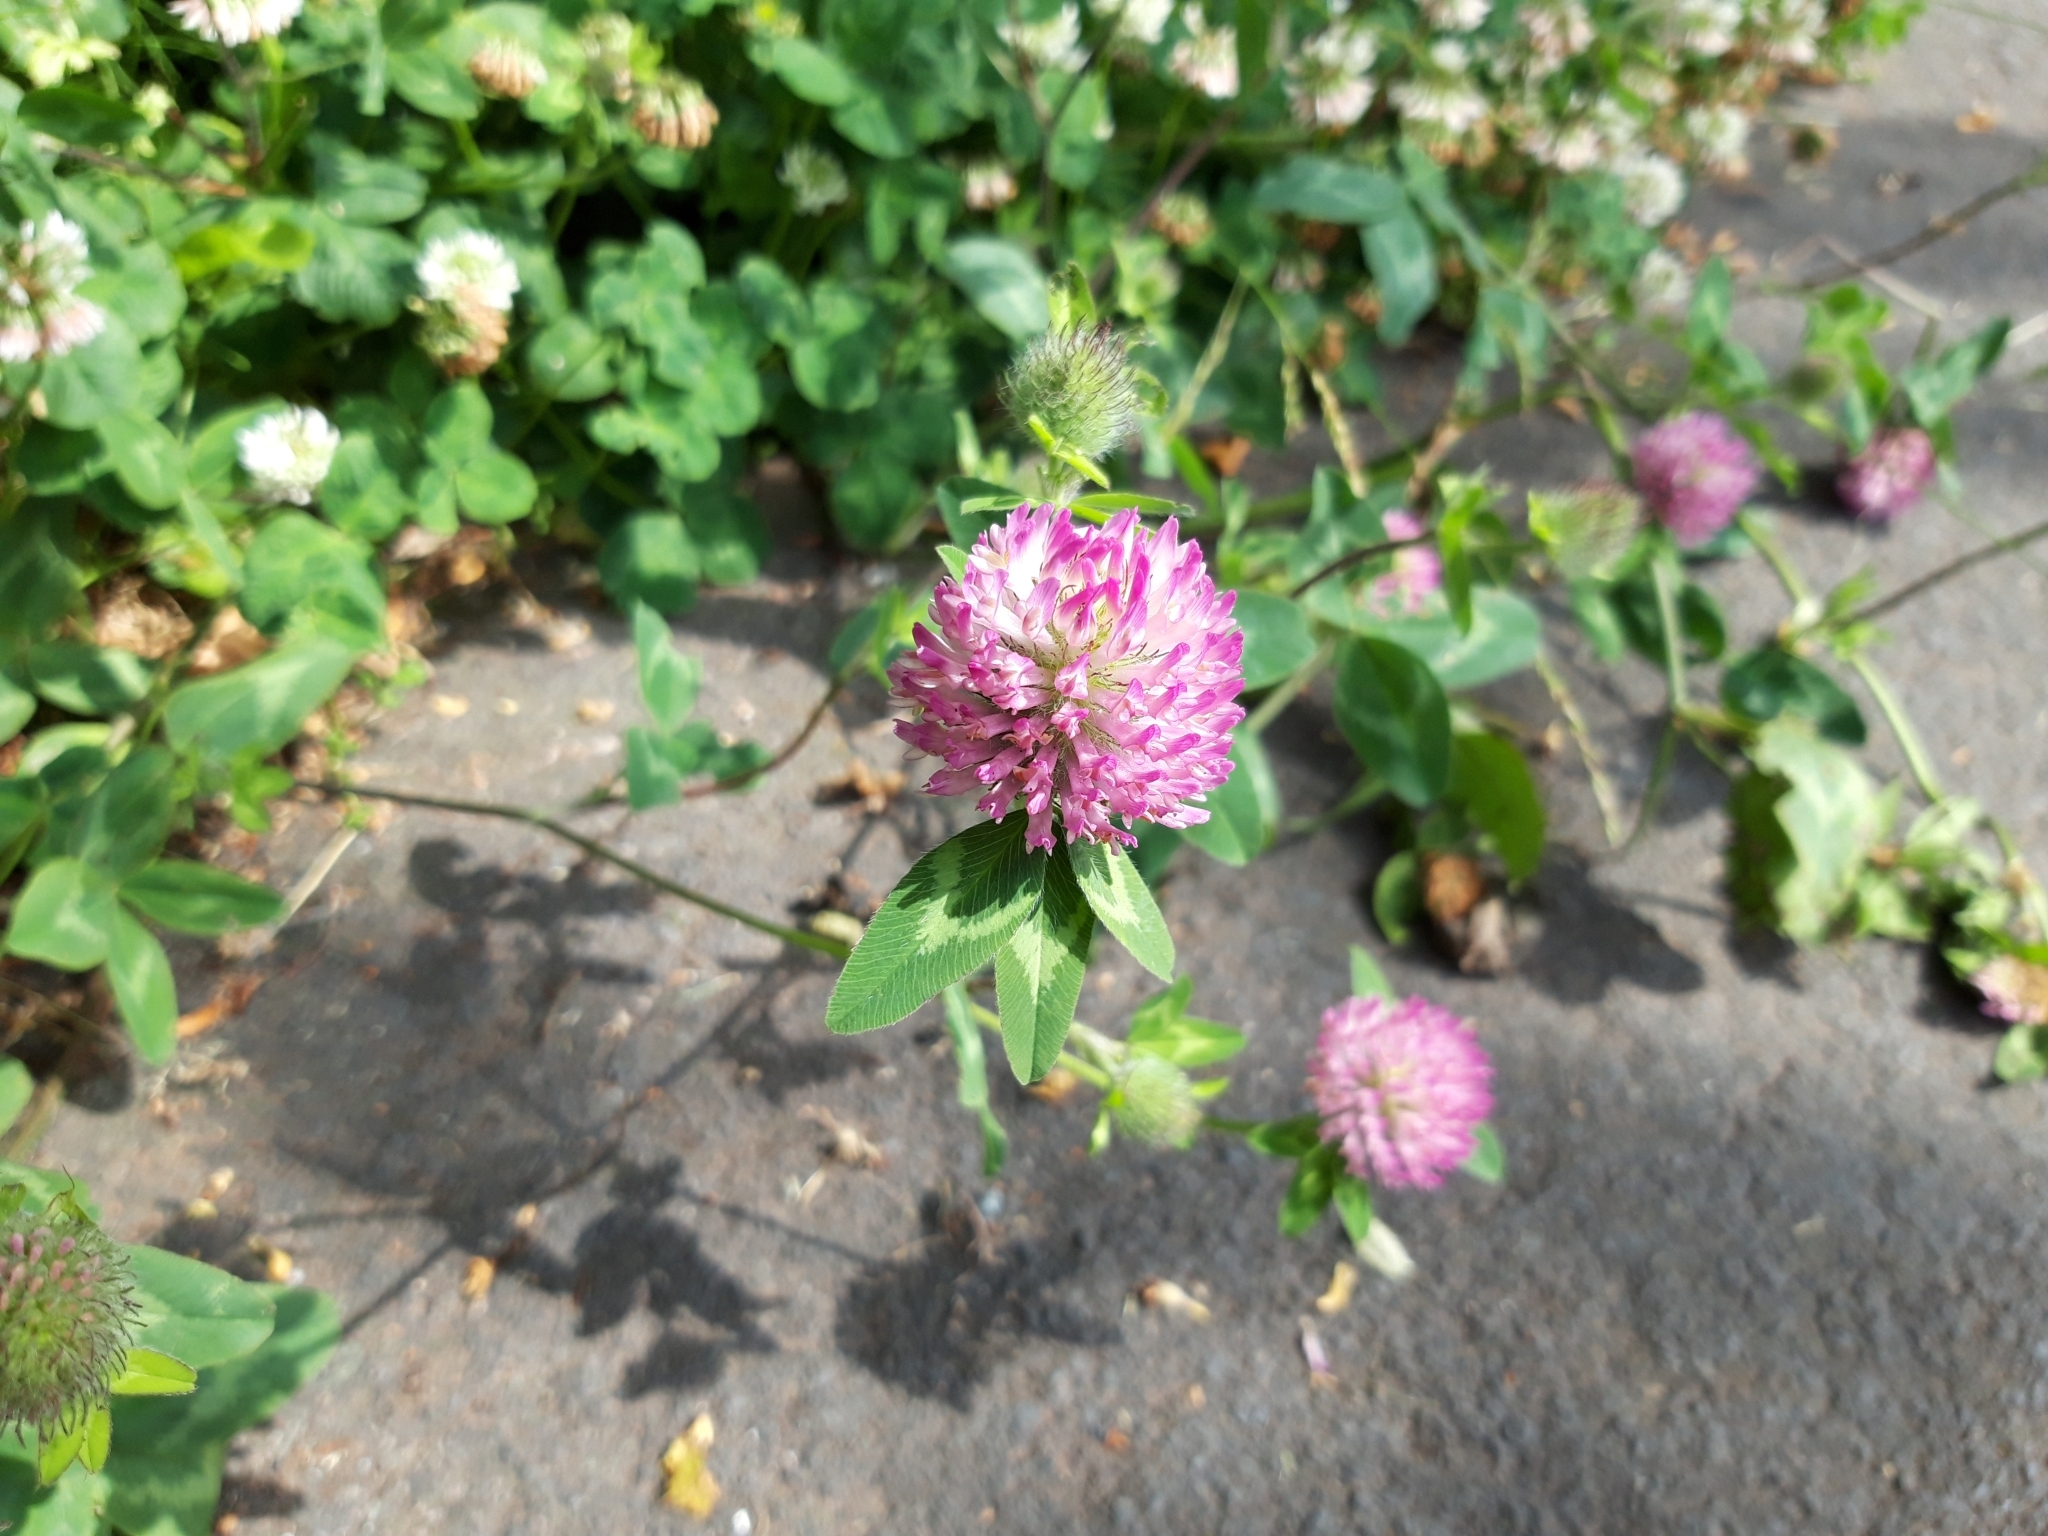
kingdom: Plantae
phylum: Tracheophyta
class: Magnoliopsida
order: Fabales
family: Fabaceae
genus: Trifolium
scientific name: Trifolium pratense
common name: Red clover
